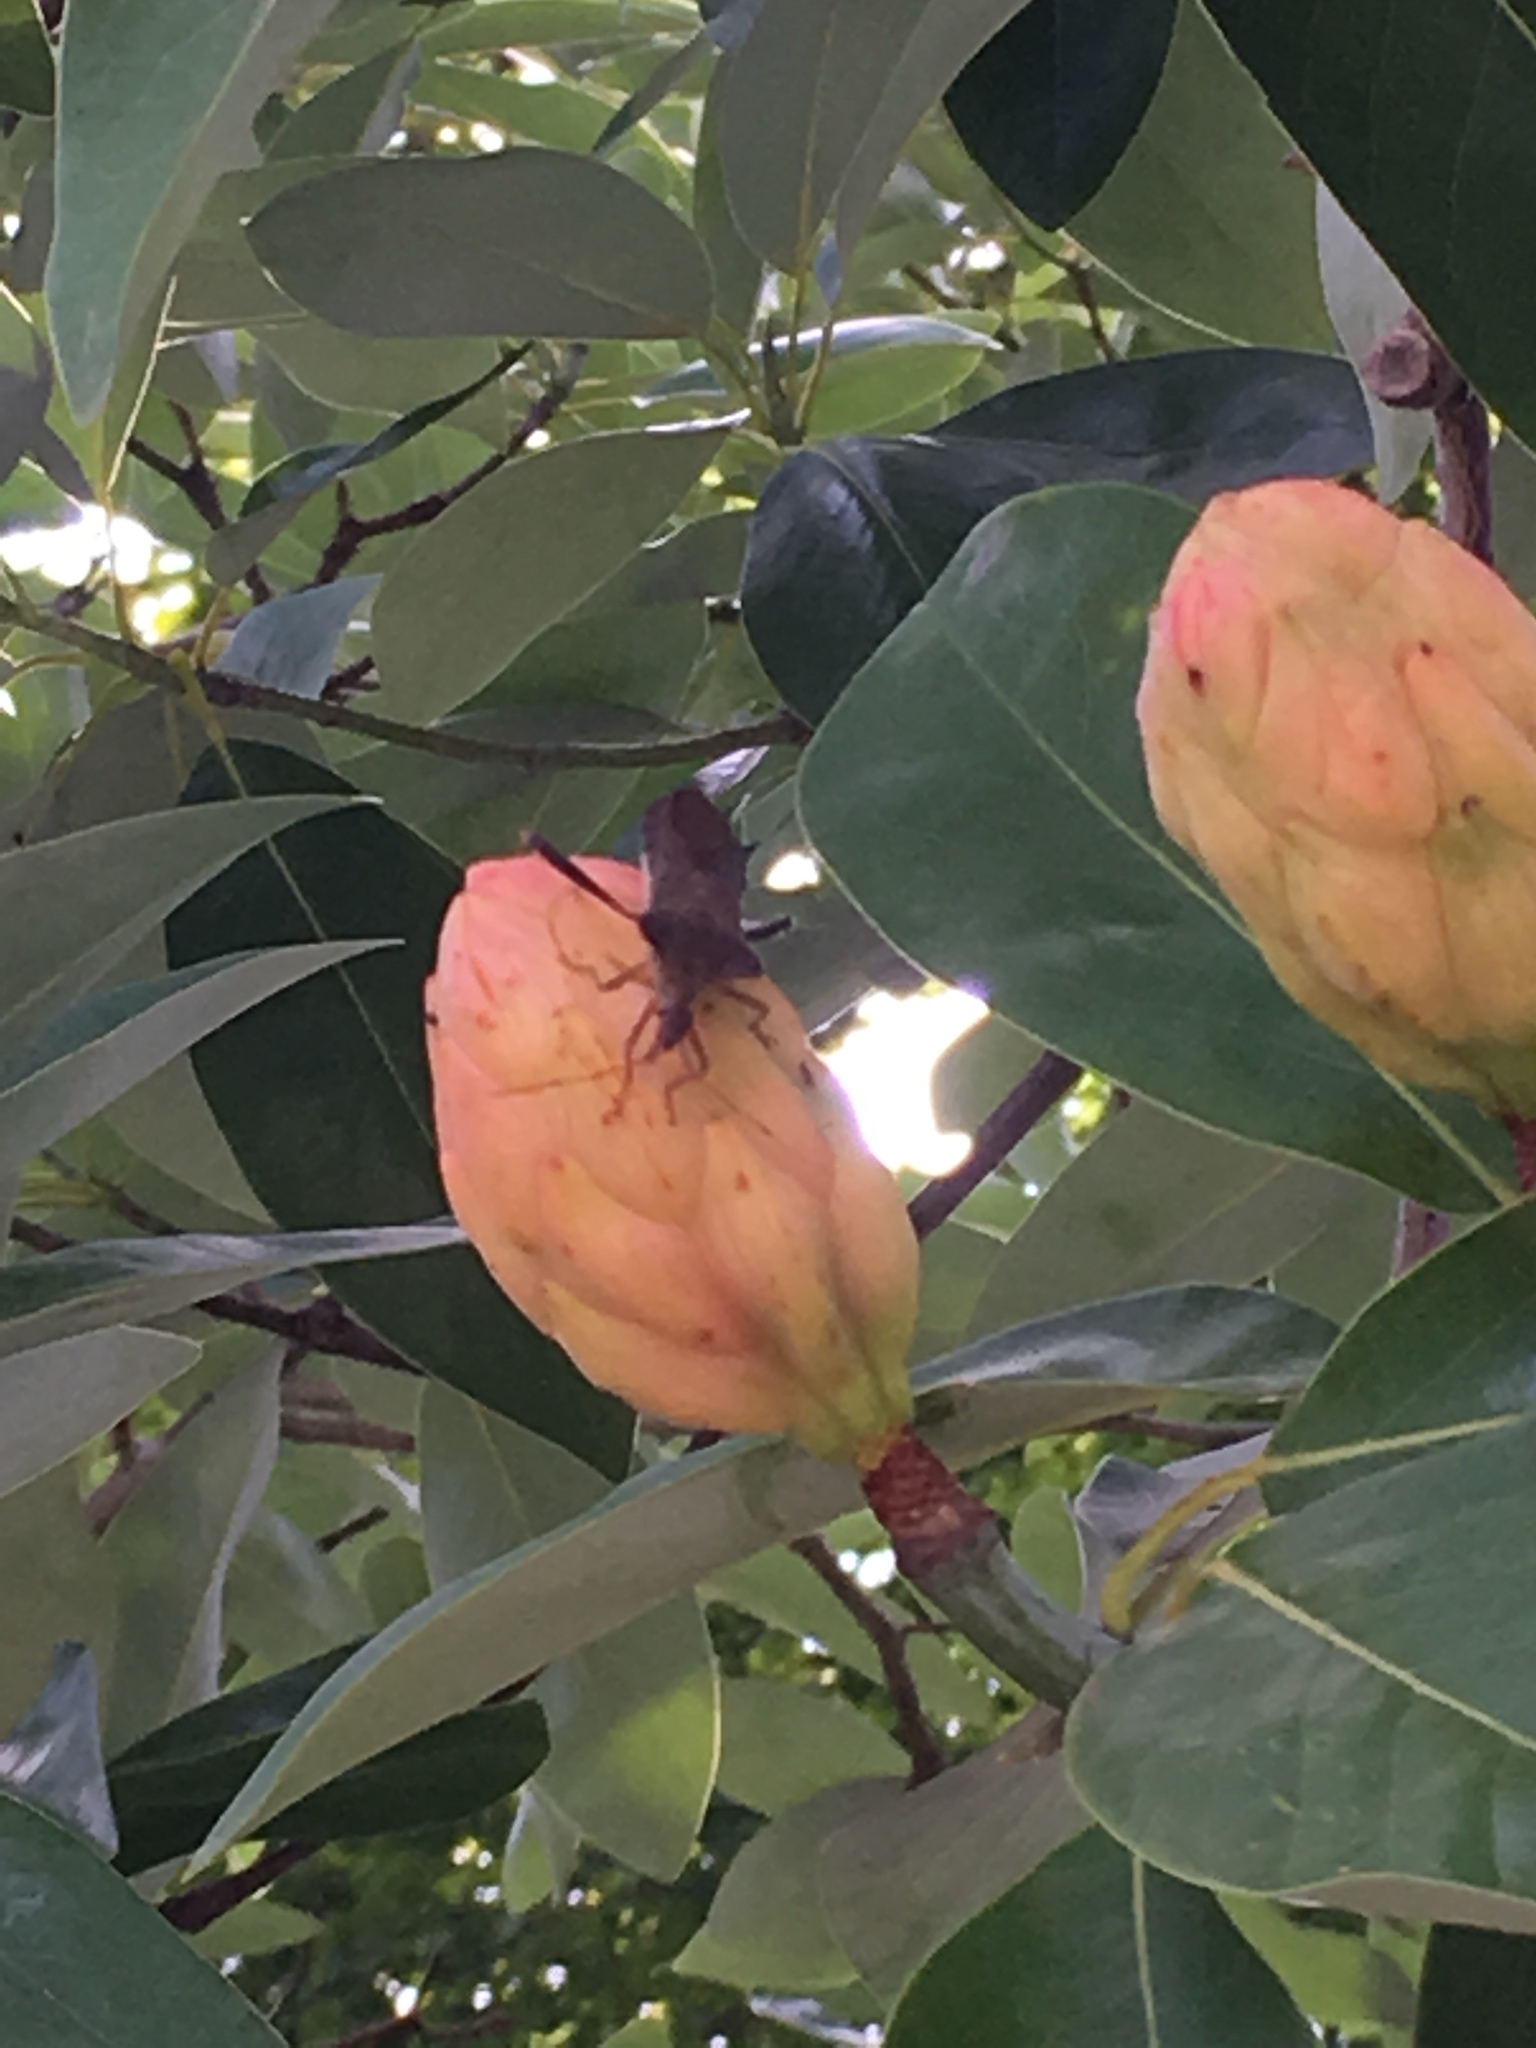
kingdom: Animalia
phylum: Arthropoda
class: Insecta
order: Hemiptera
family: Coreidae
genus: Leptoglossus
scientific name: Leptoglossus fulvicornis
